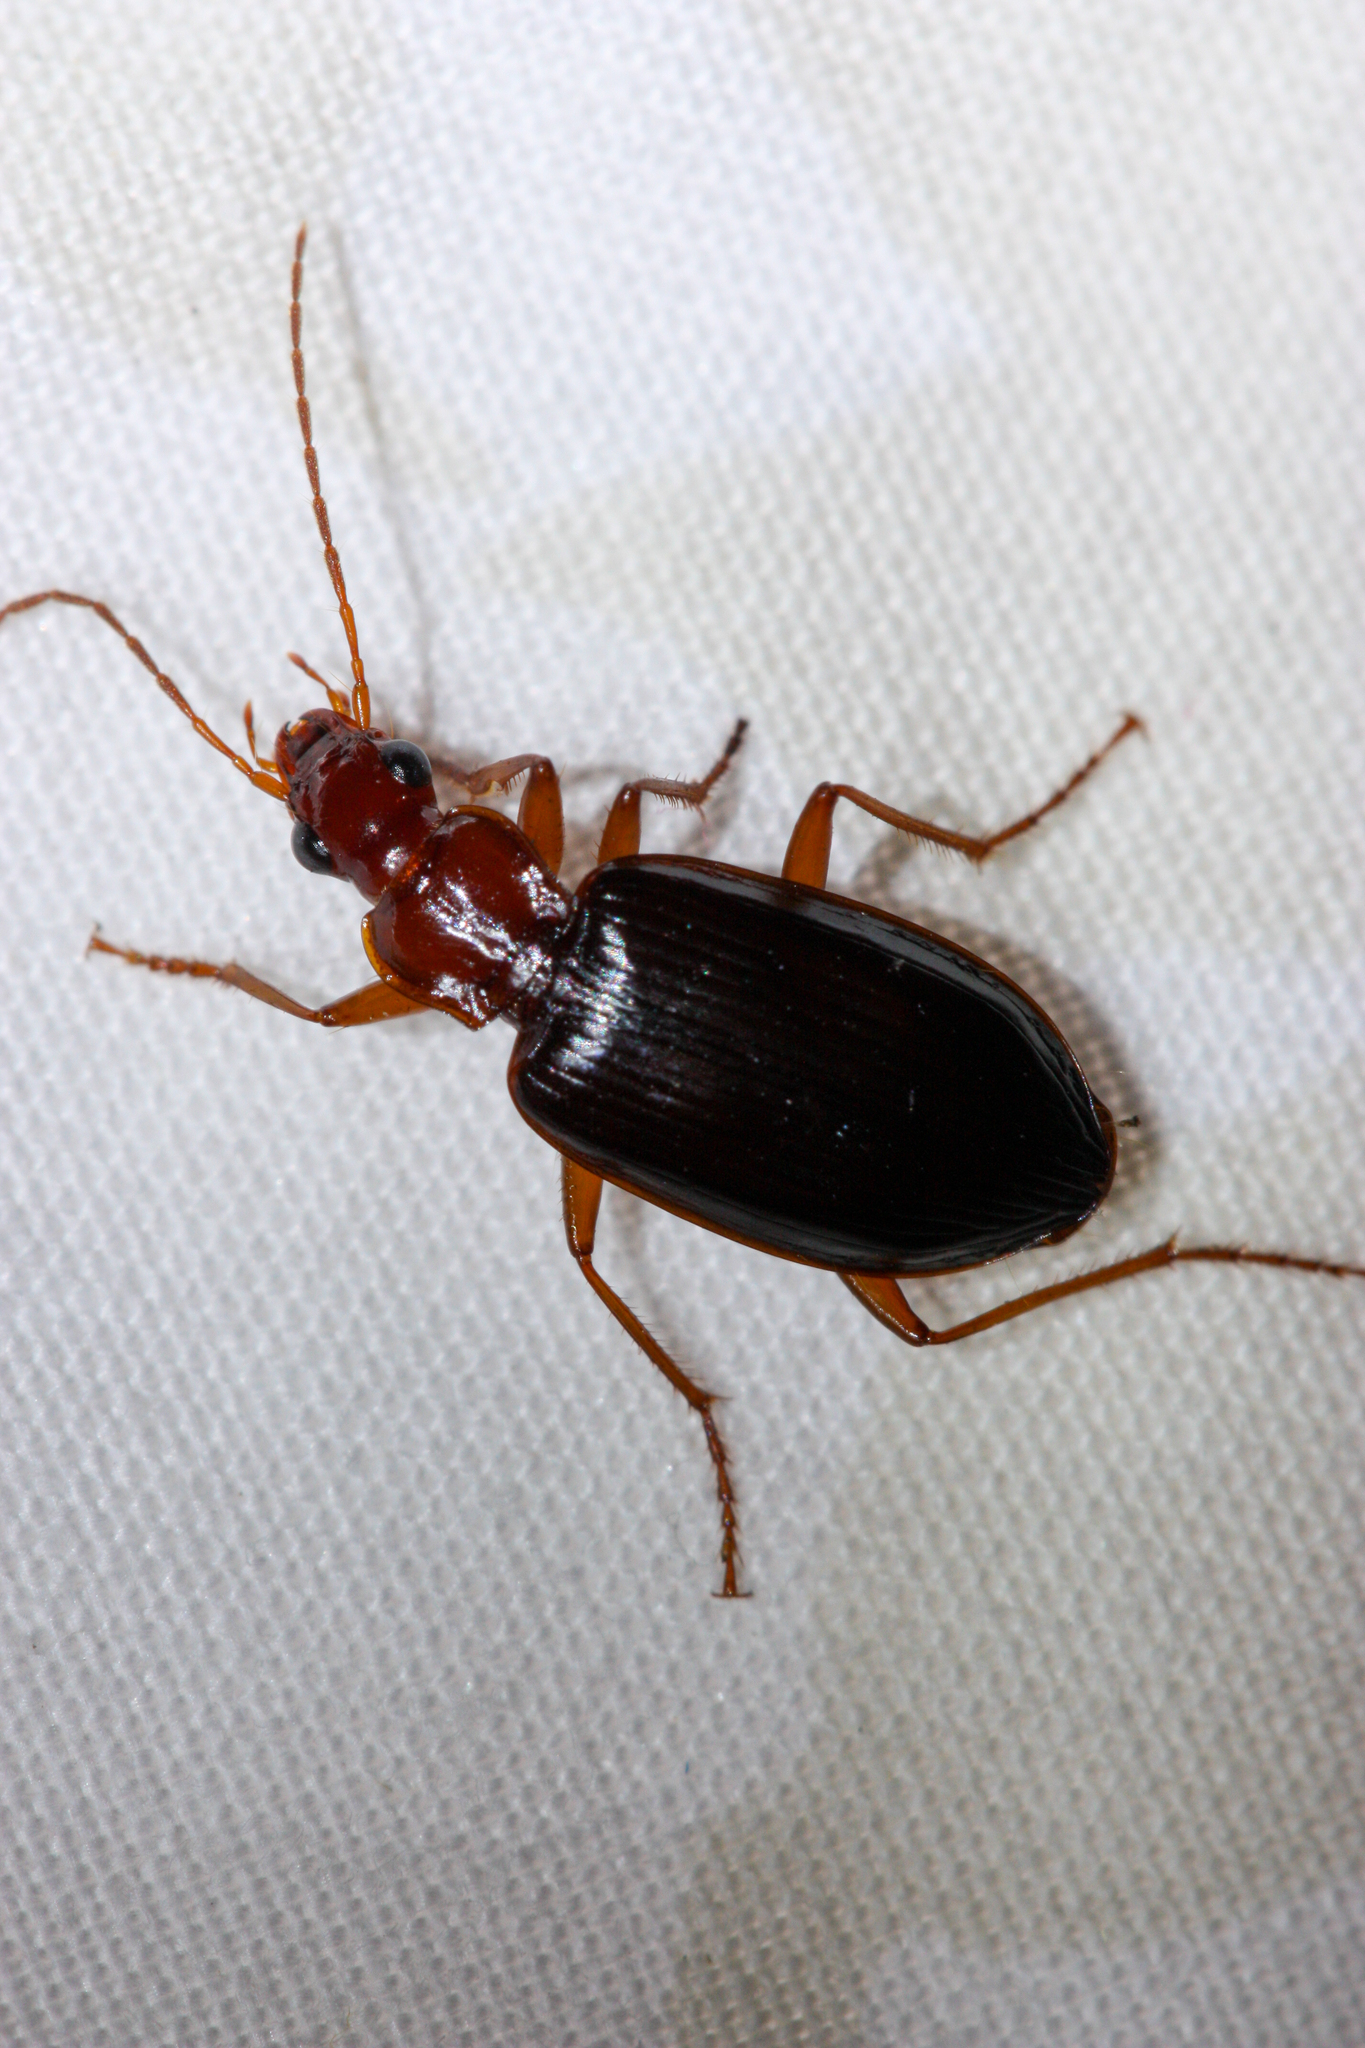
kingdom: Animalia
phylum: Arthropoda
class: Insecta
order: Coleoptera
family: Carabidae
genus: Platynus
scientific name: Platynus brunneomarginatus
